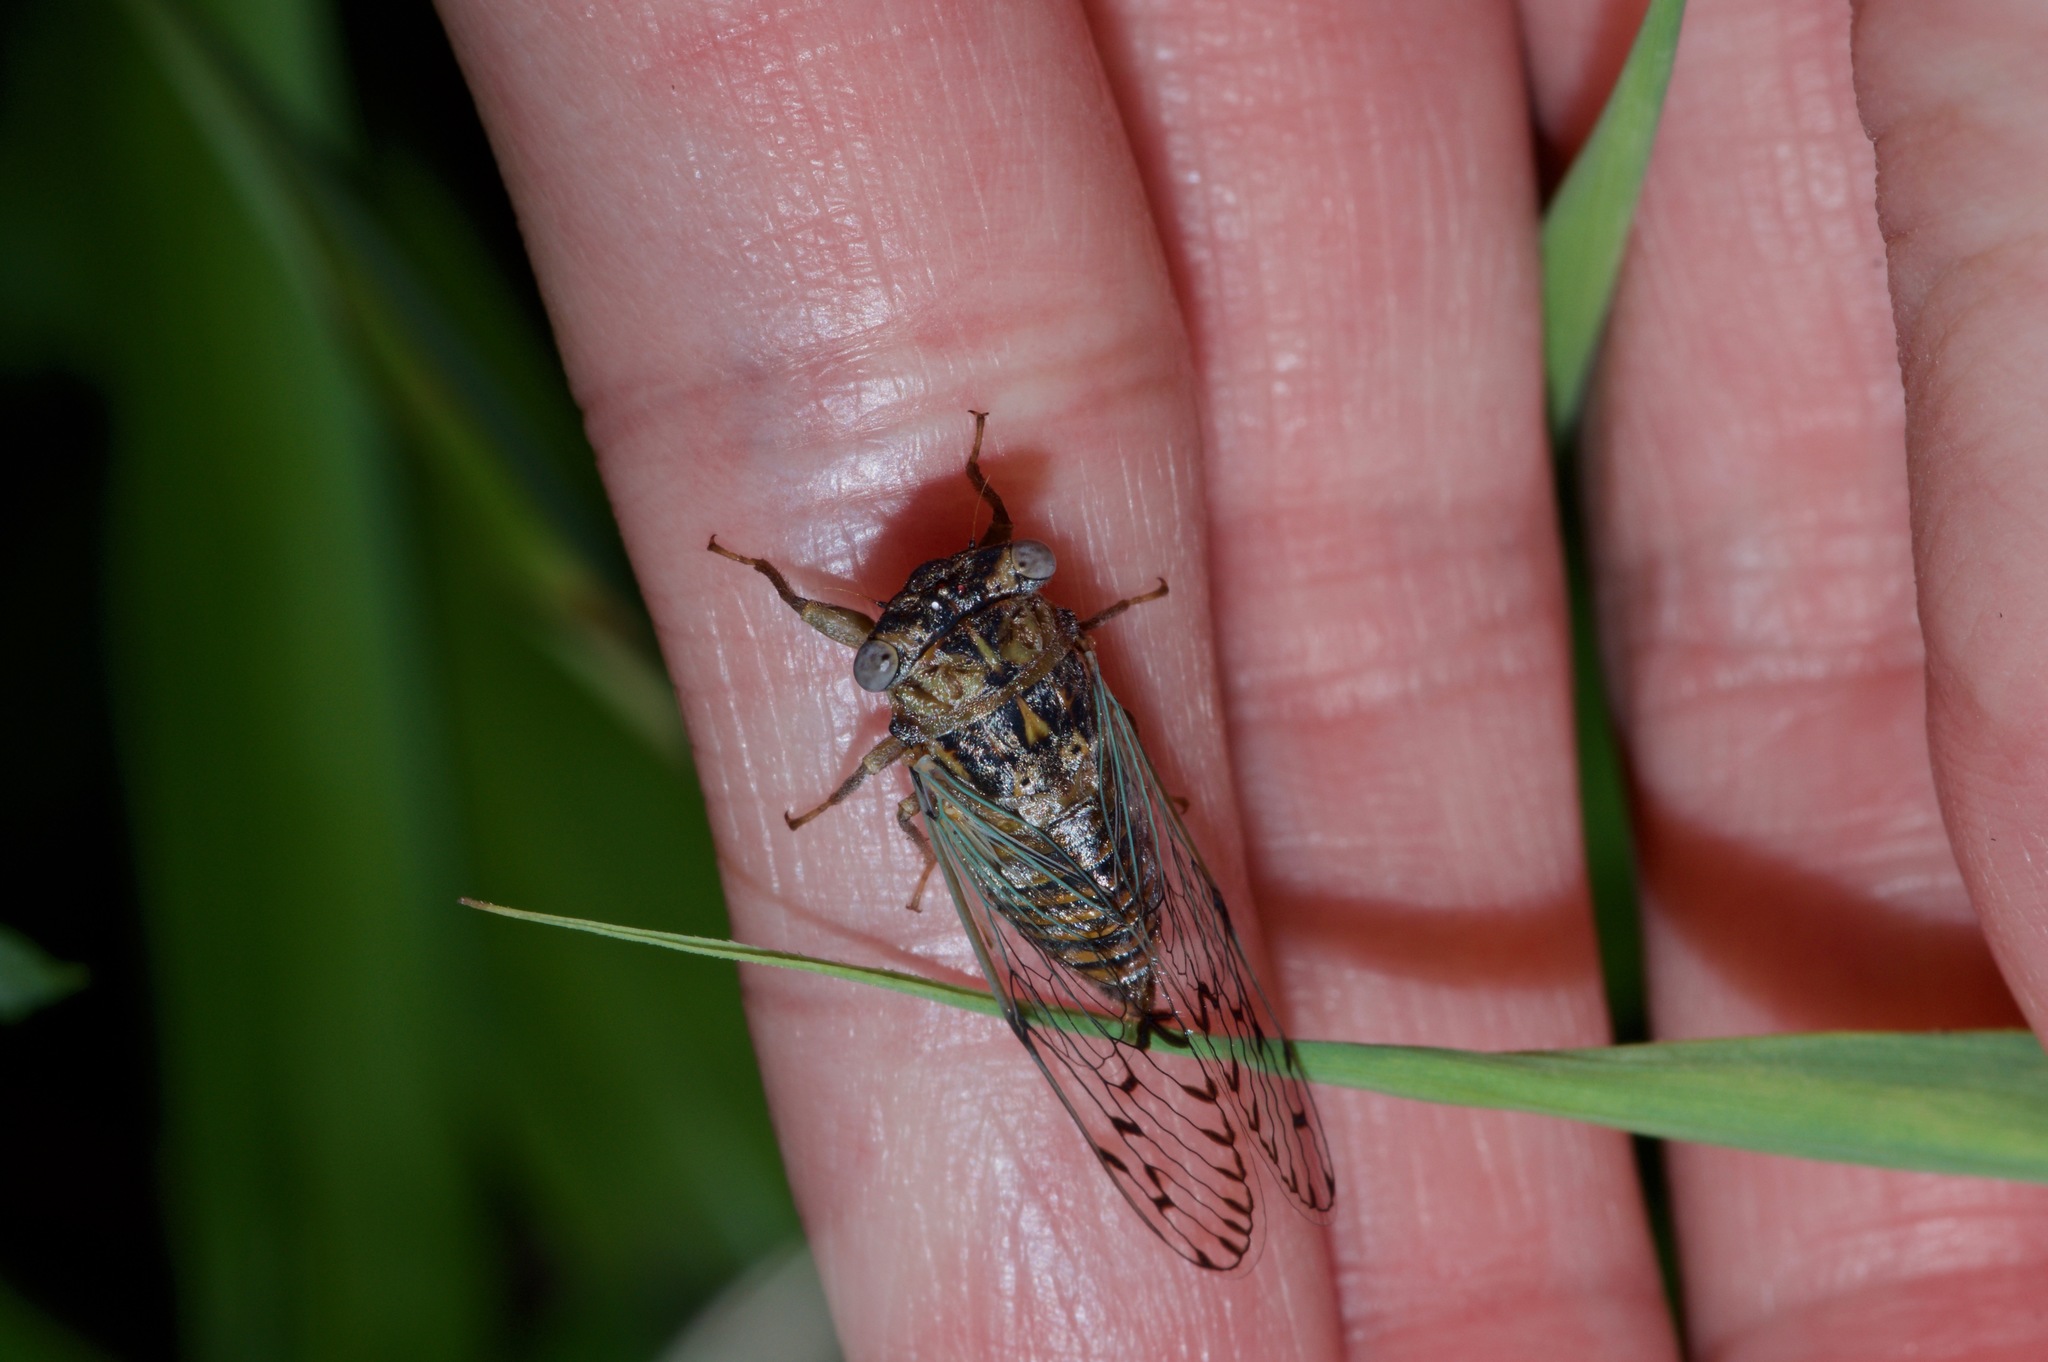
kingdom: Animalia
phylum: Arthropoda
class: Insecta
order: Hemiptera
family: Cicadidae
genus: Pacarina
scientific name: Pacarina puella
